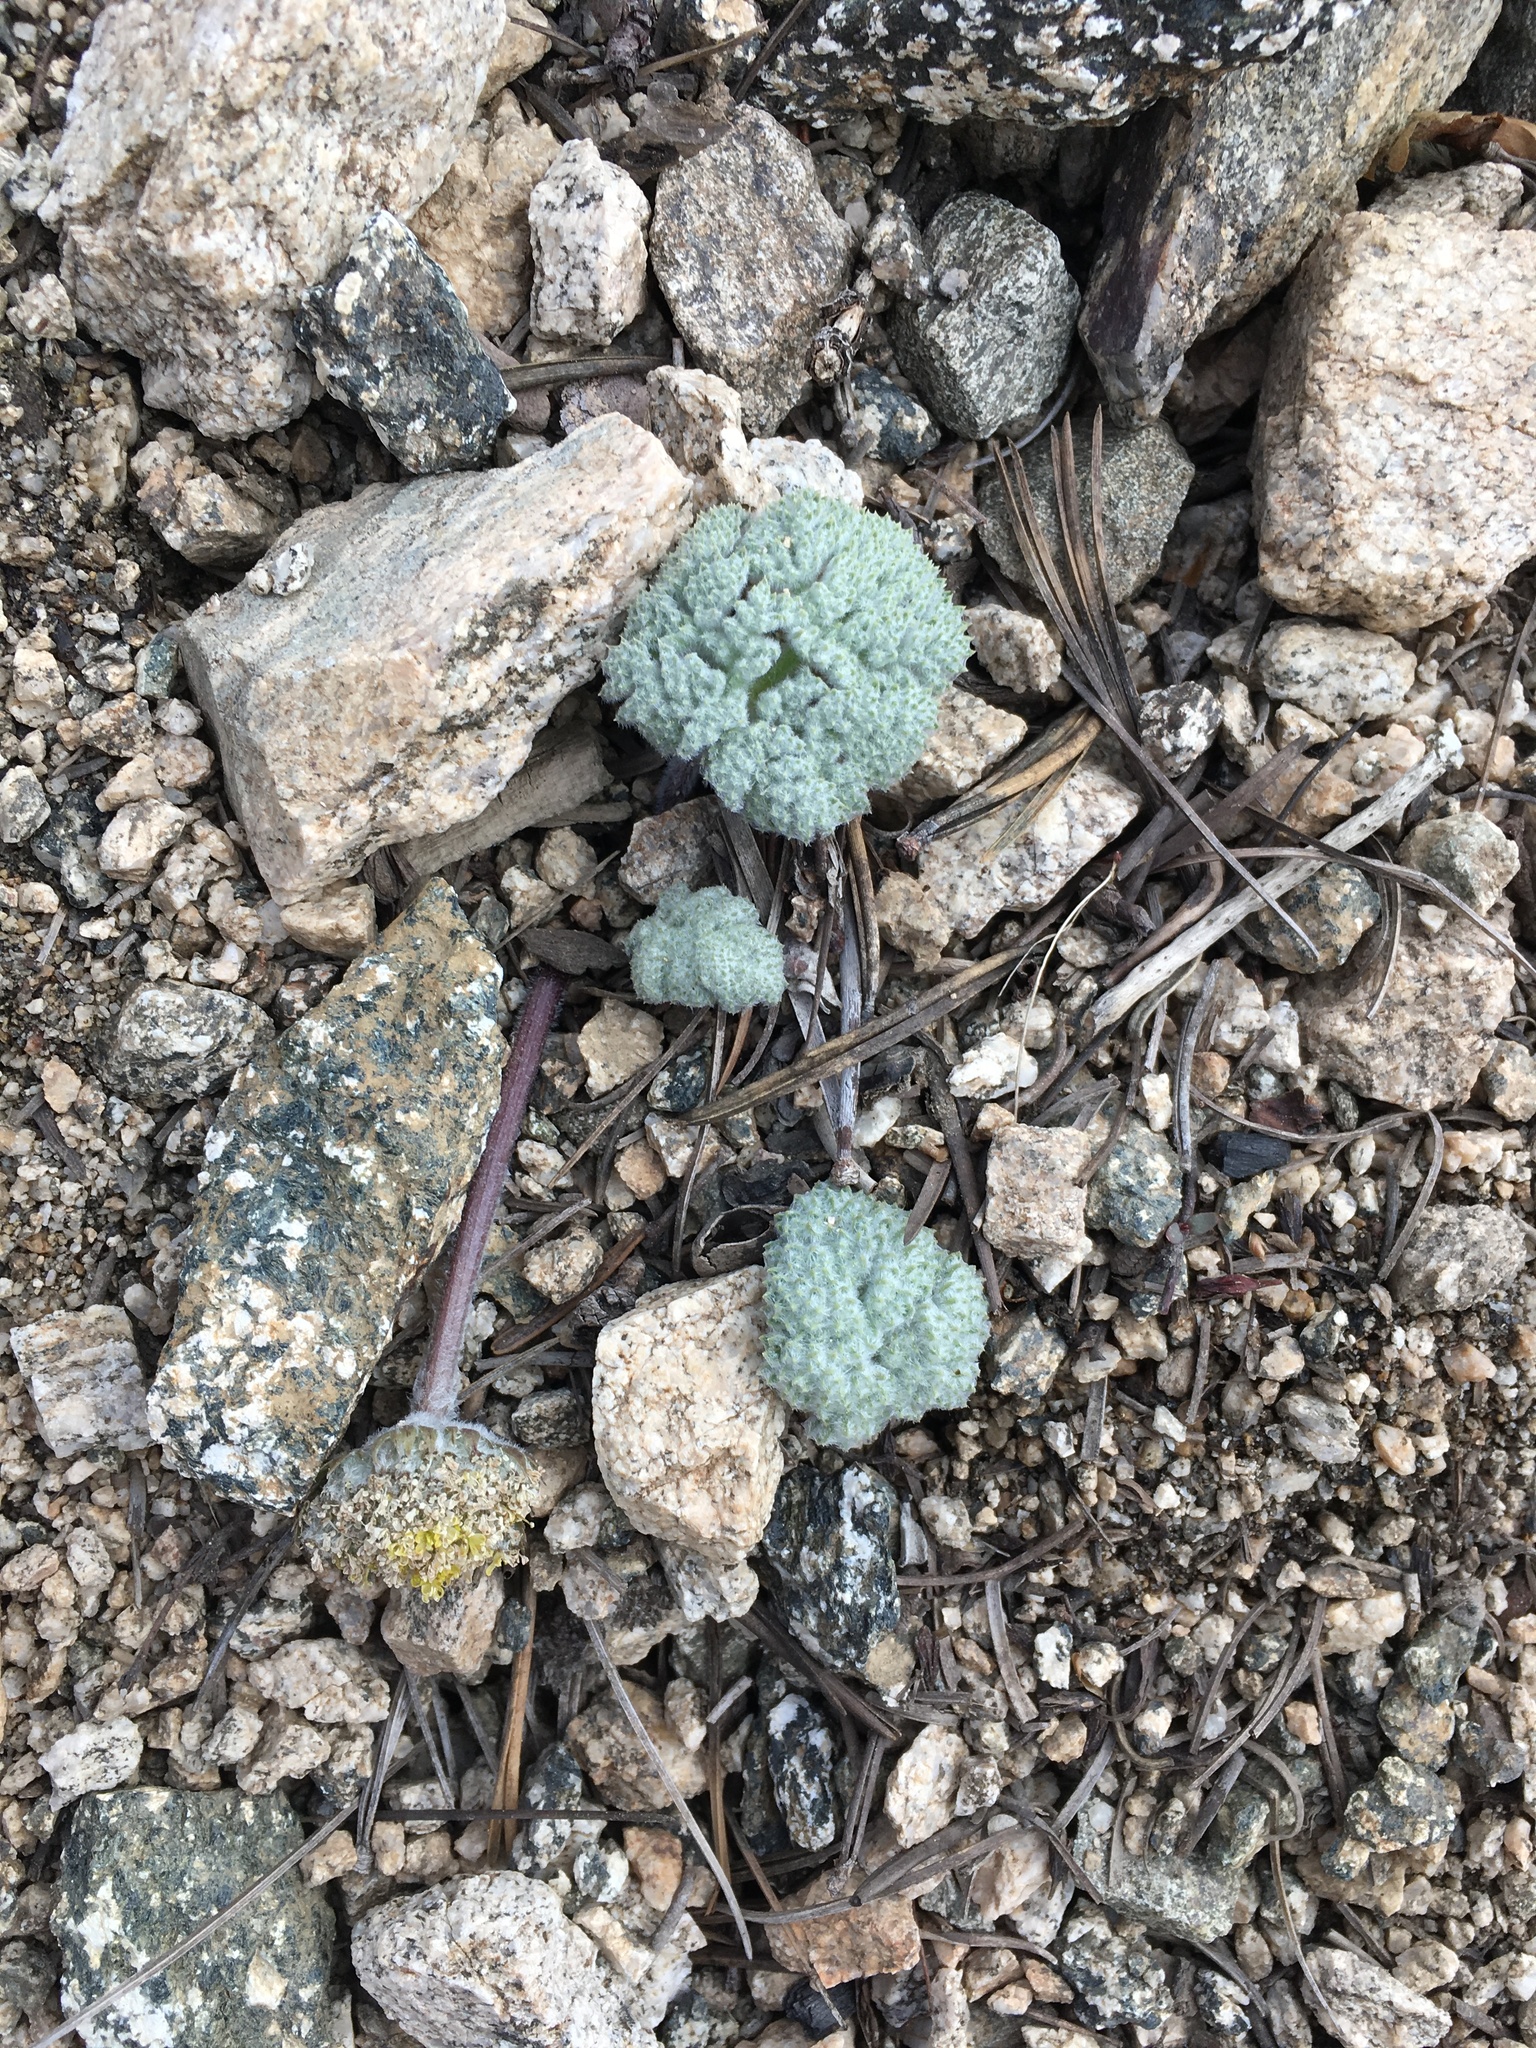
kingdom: Plantae
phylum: Tracheophyta
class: Magnoliopsida
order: Apiales
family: Apiaceae
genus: Oreonana
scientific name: Oreonana vestita
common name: Woolly mountain-parsley
